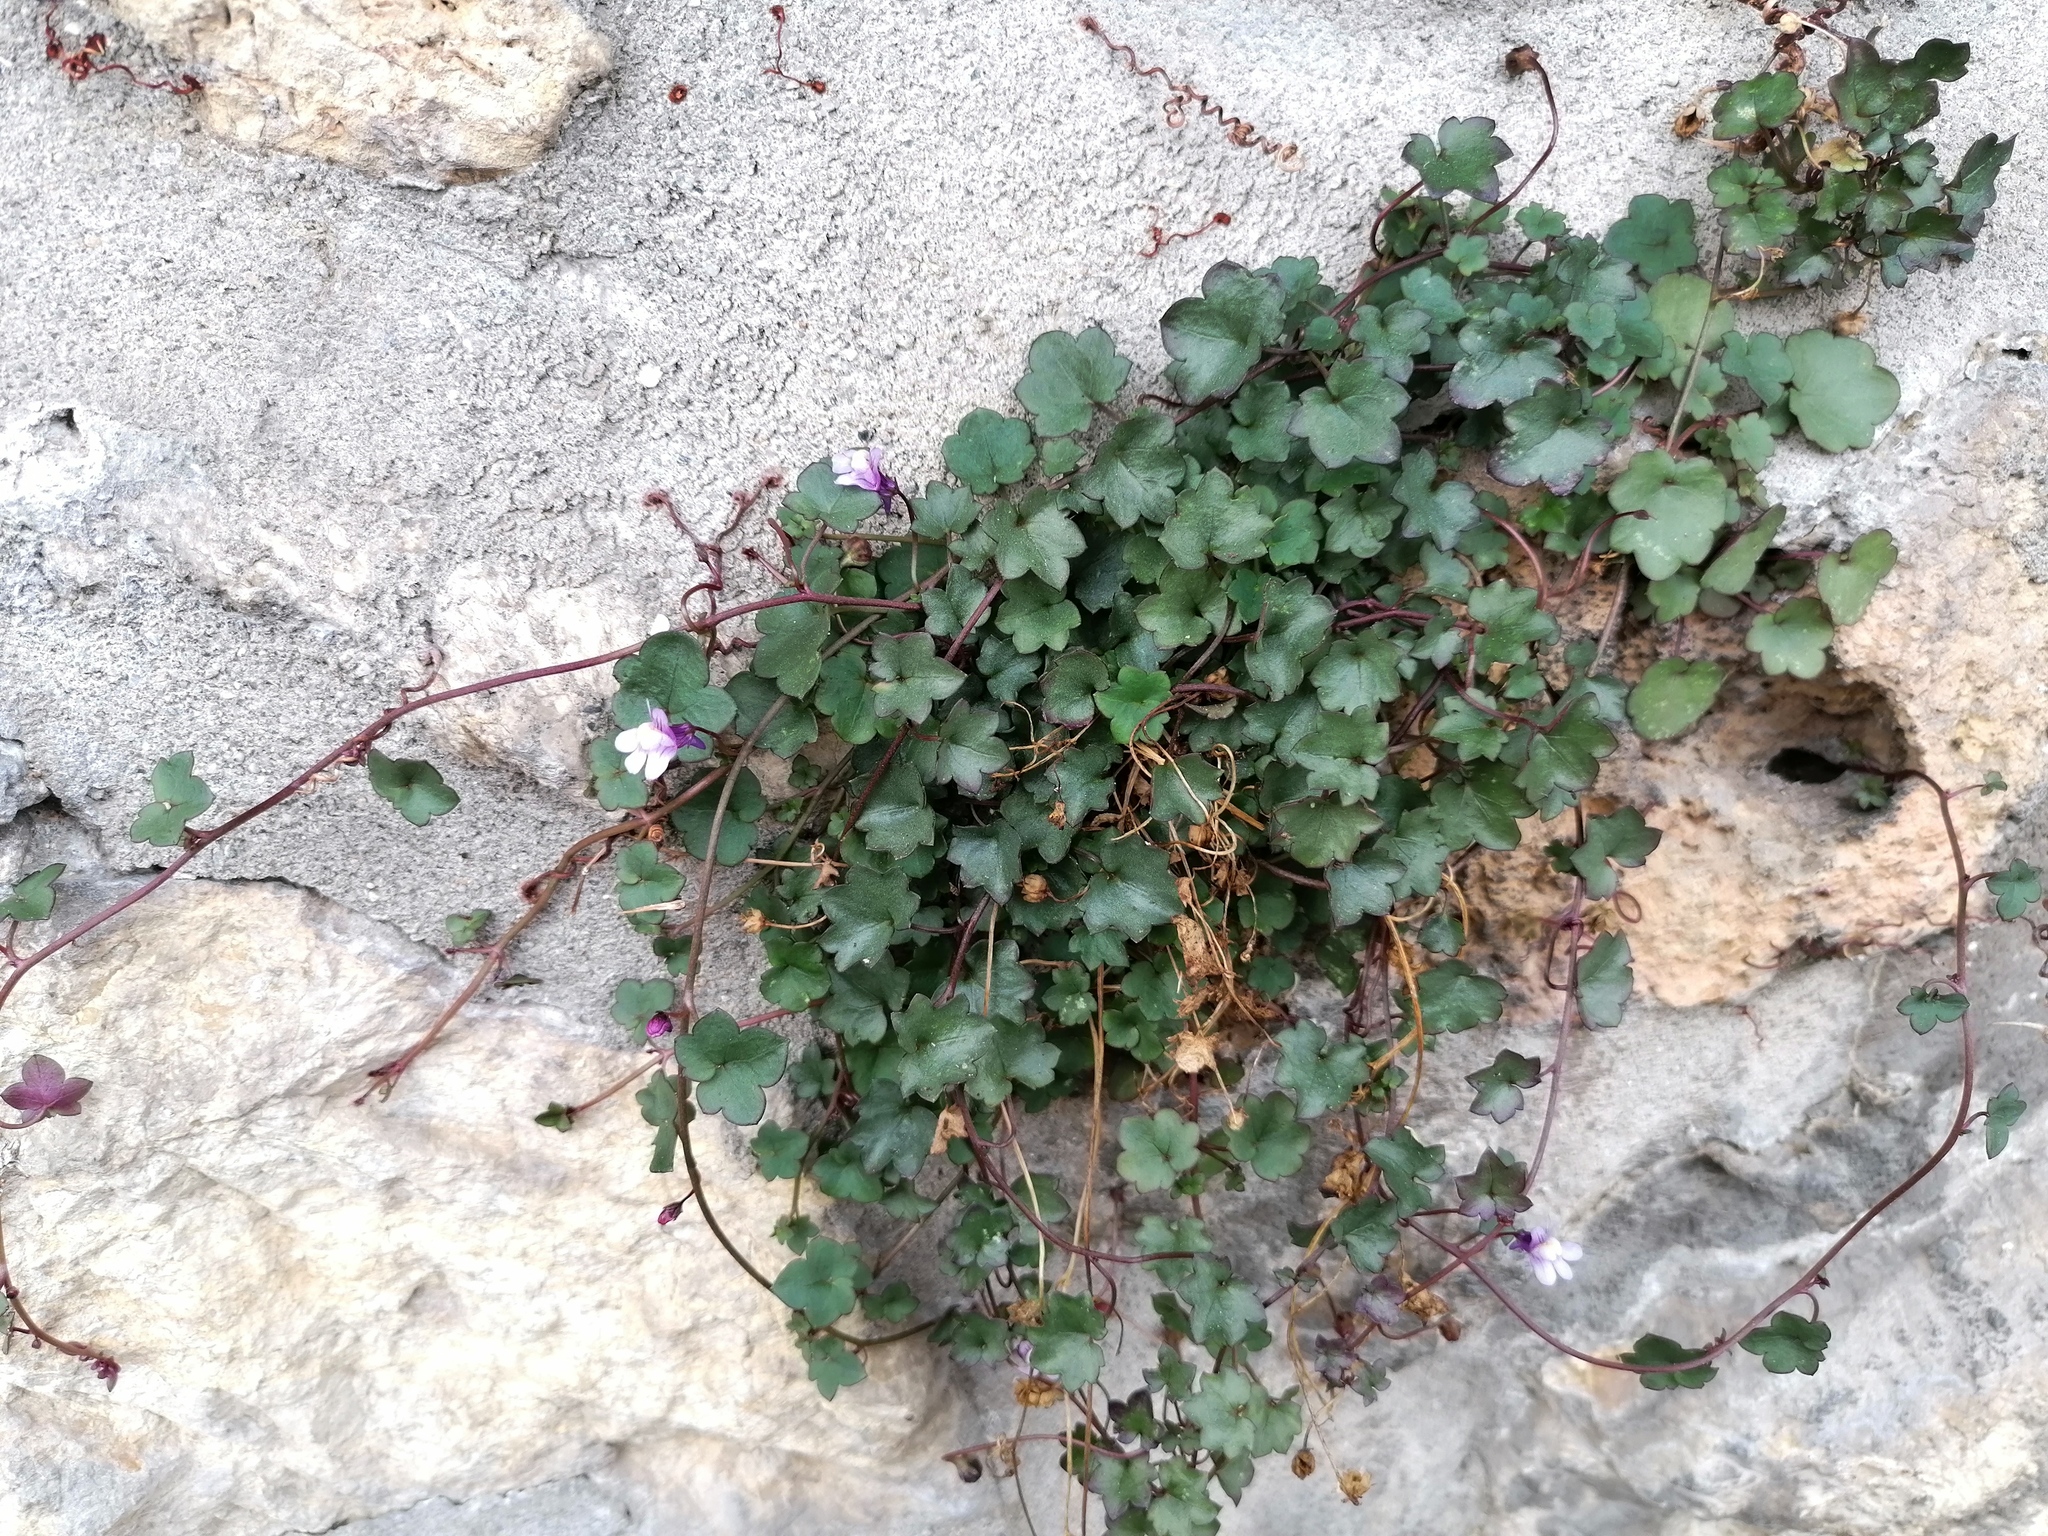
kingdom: Plantae
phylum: Tracheophyta
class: Magnoliopsida
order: Lamiales
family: Plantaginaceae
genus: Cymbalaria
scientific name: Cymbalaria muralis
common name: Ivy-leaved toadflax
